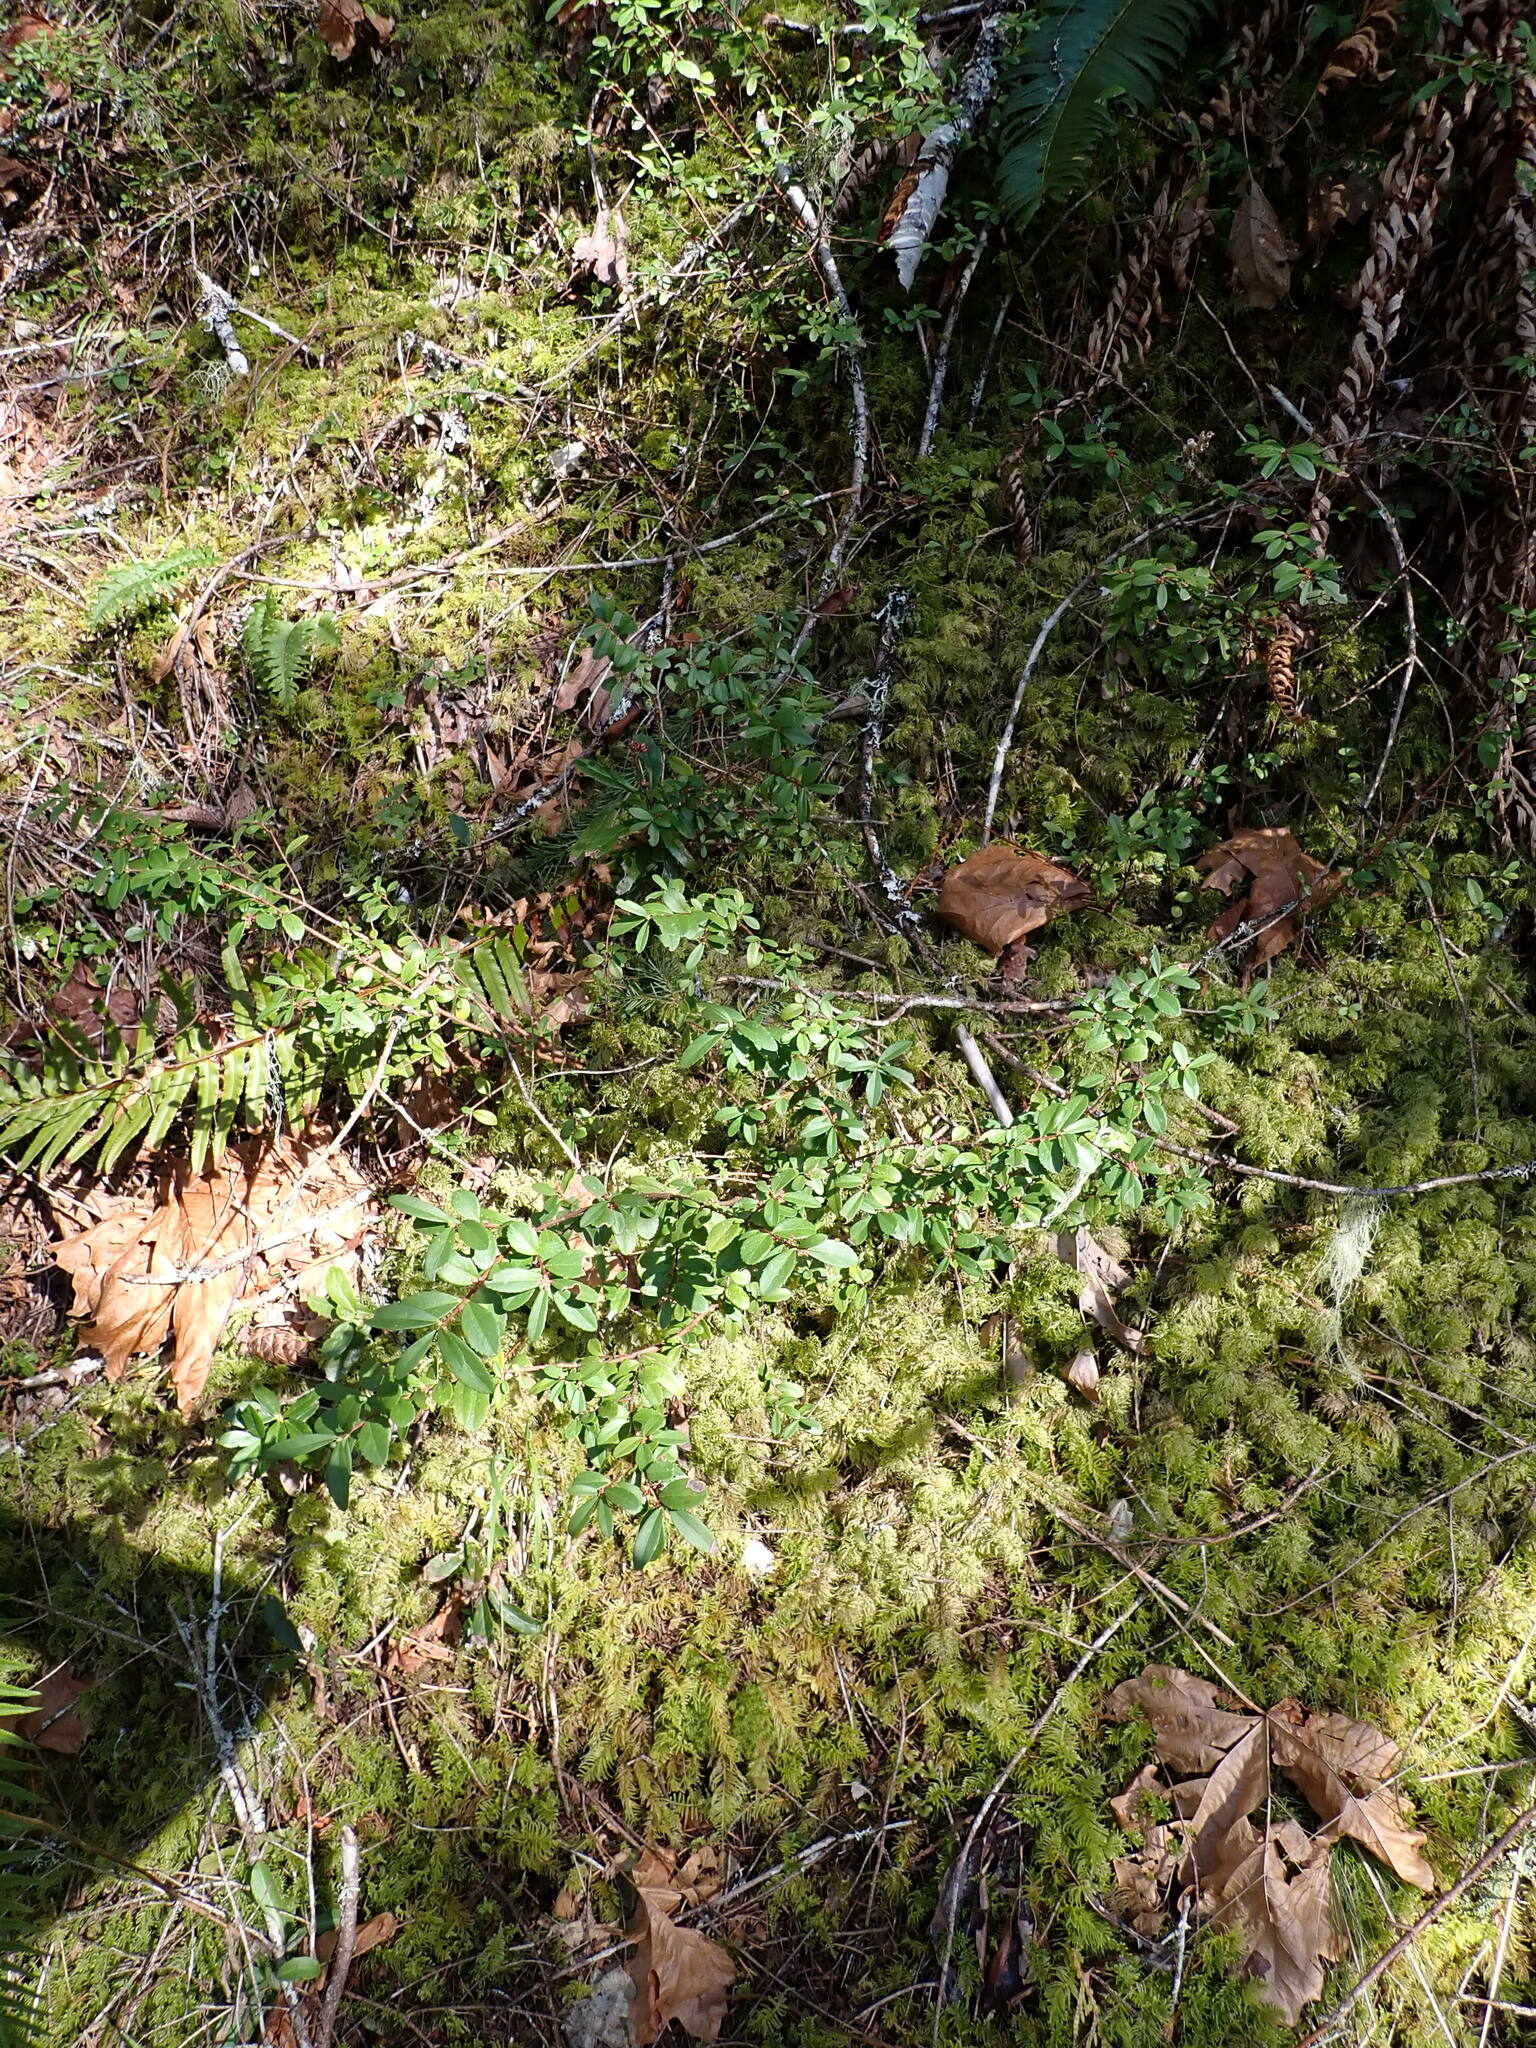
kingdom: Plantae
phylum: Tracheophyta
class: Magnoliopsida
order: Celastrales
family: Celastraceae
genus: Paxistima
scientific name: Paxistima myrsinites
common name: Mountain-lover
